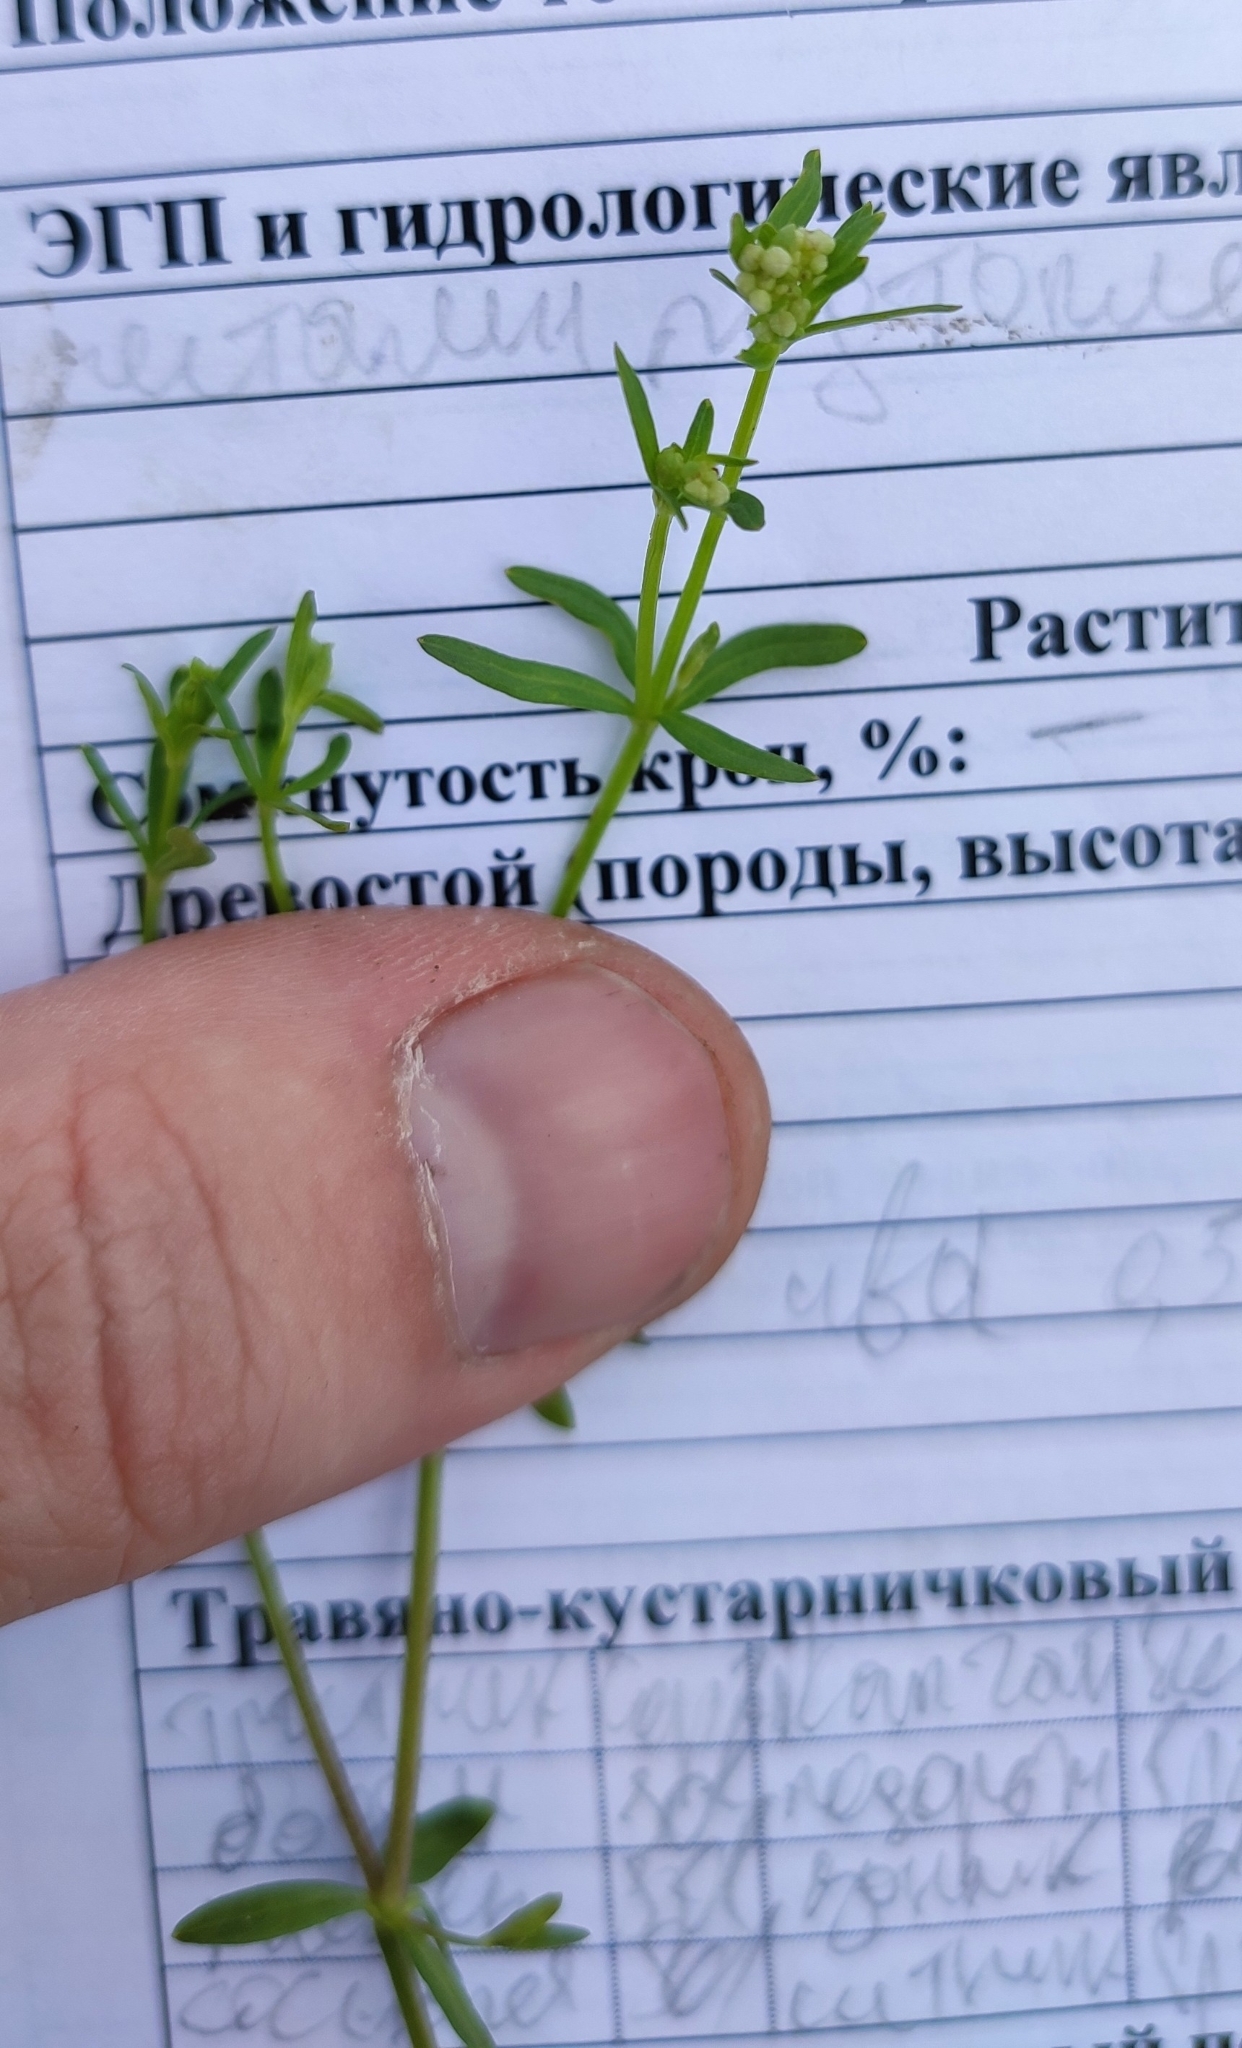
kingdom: Plantae
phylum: Tracheophyta
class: Magnoliopsida
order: Gentianales
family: Rubiaceae
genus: Galium
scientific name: Galium palustre
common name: Common marsh-bedstraw
